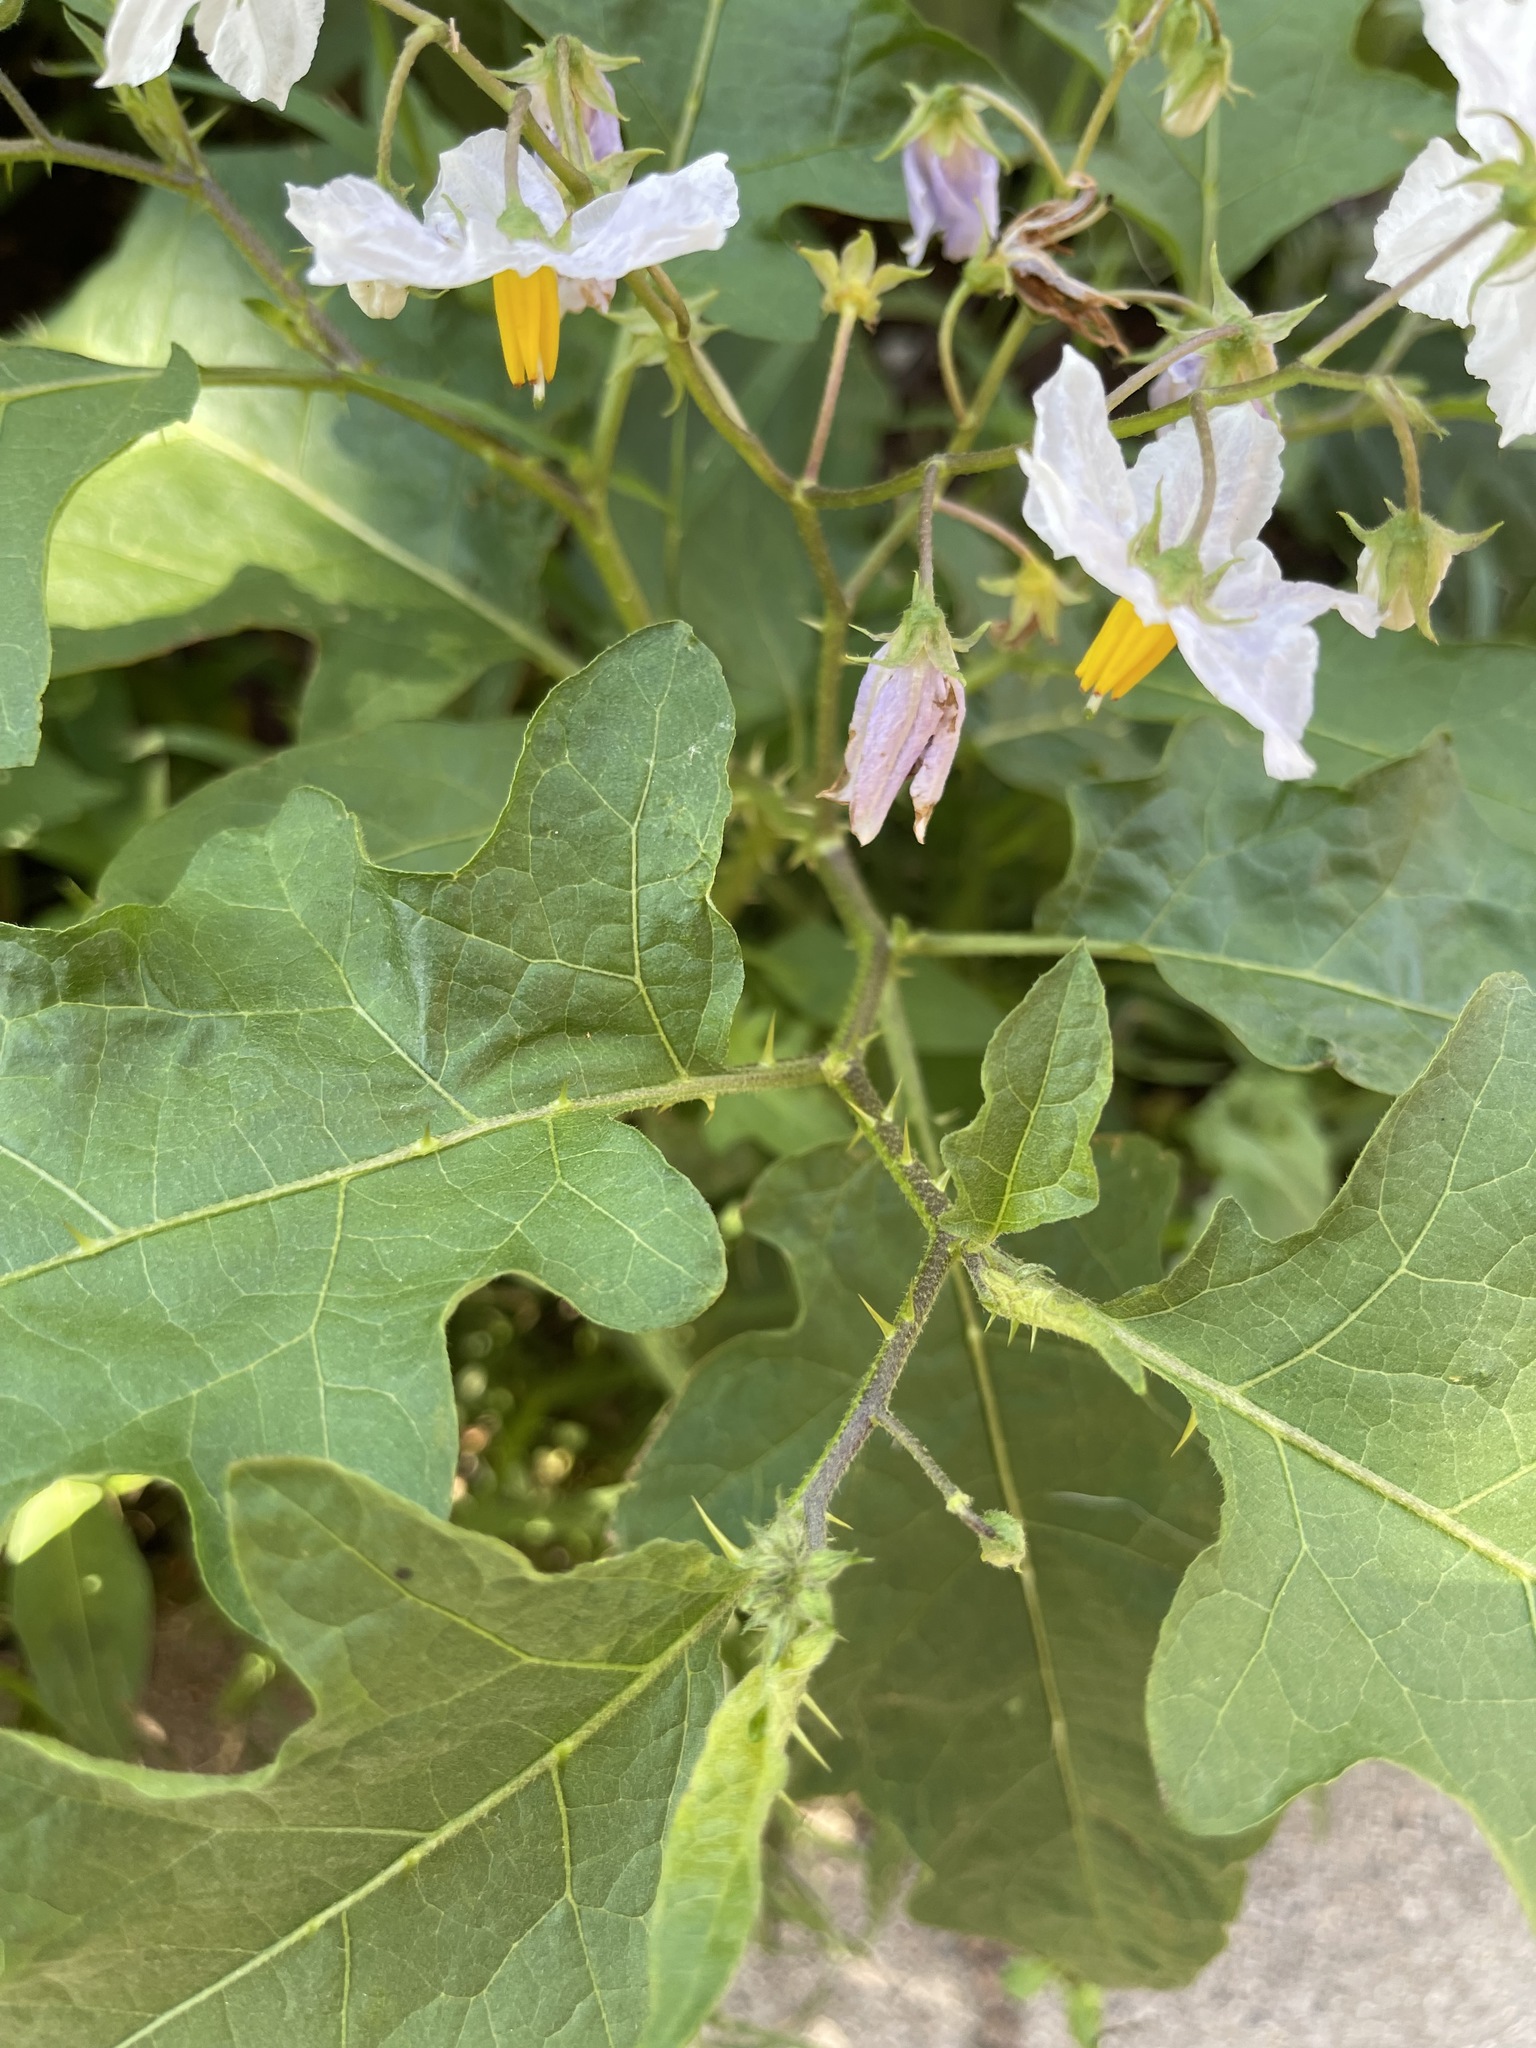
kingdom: Plantae
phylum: Tracheophyta
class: Magnoliopsida
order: Solanales
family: Solanaceae
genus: Solanum
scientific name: Solanum carolinense
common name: Horse-nettle
